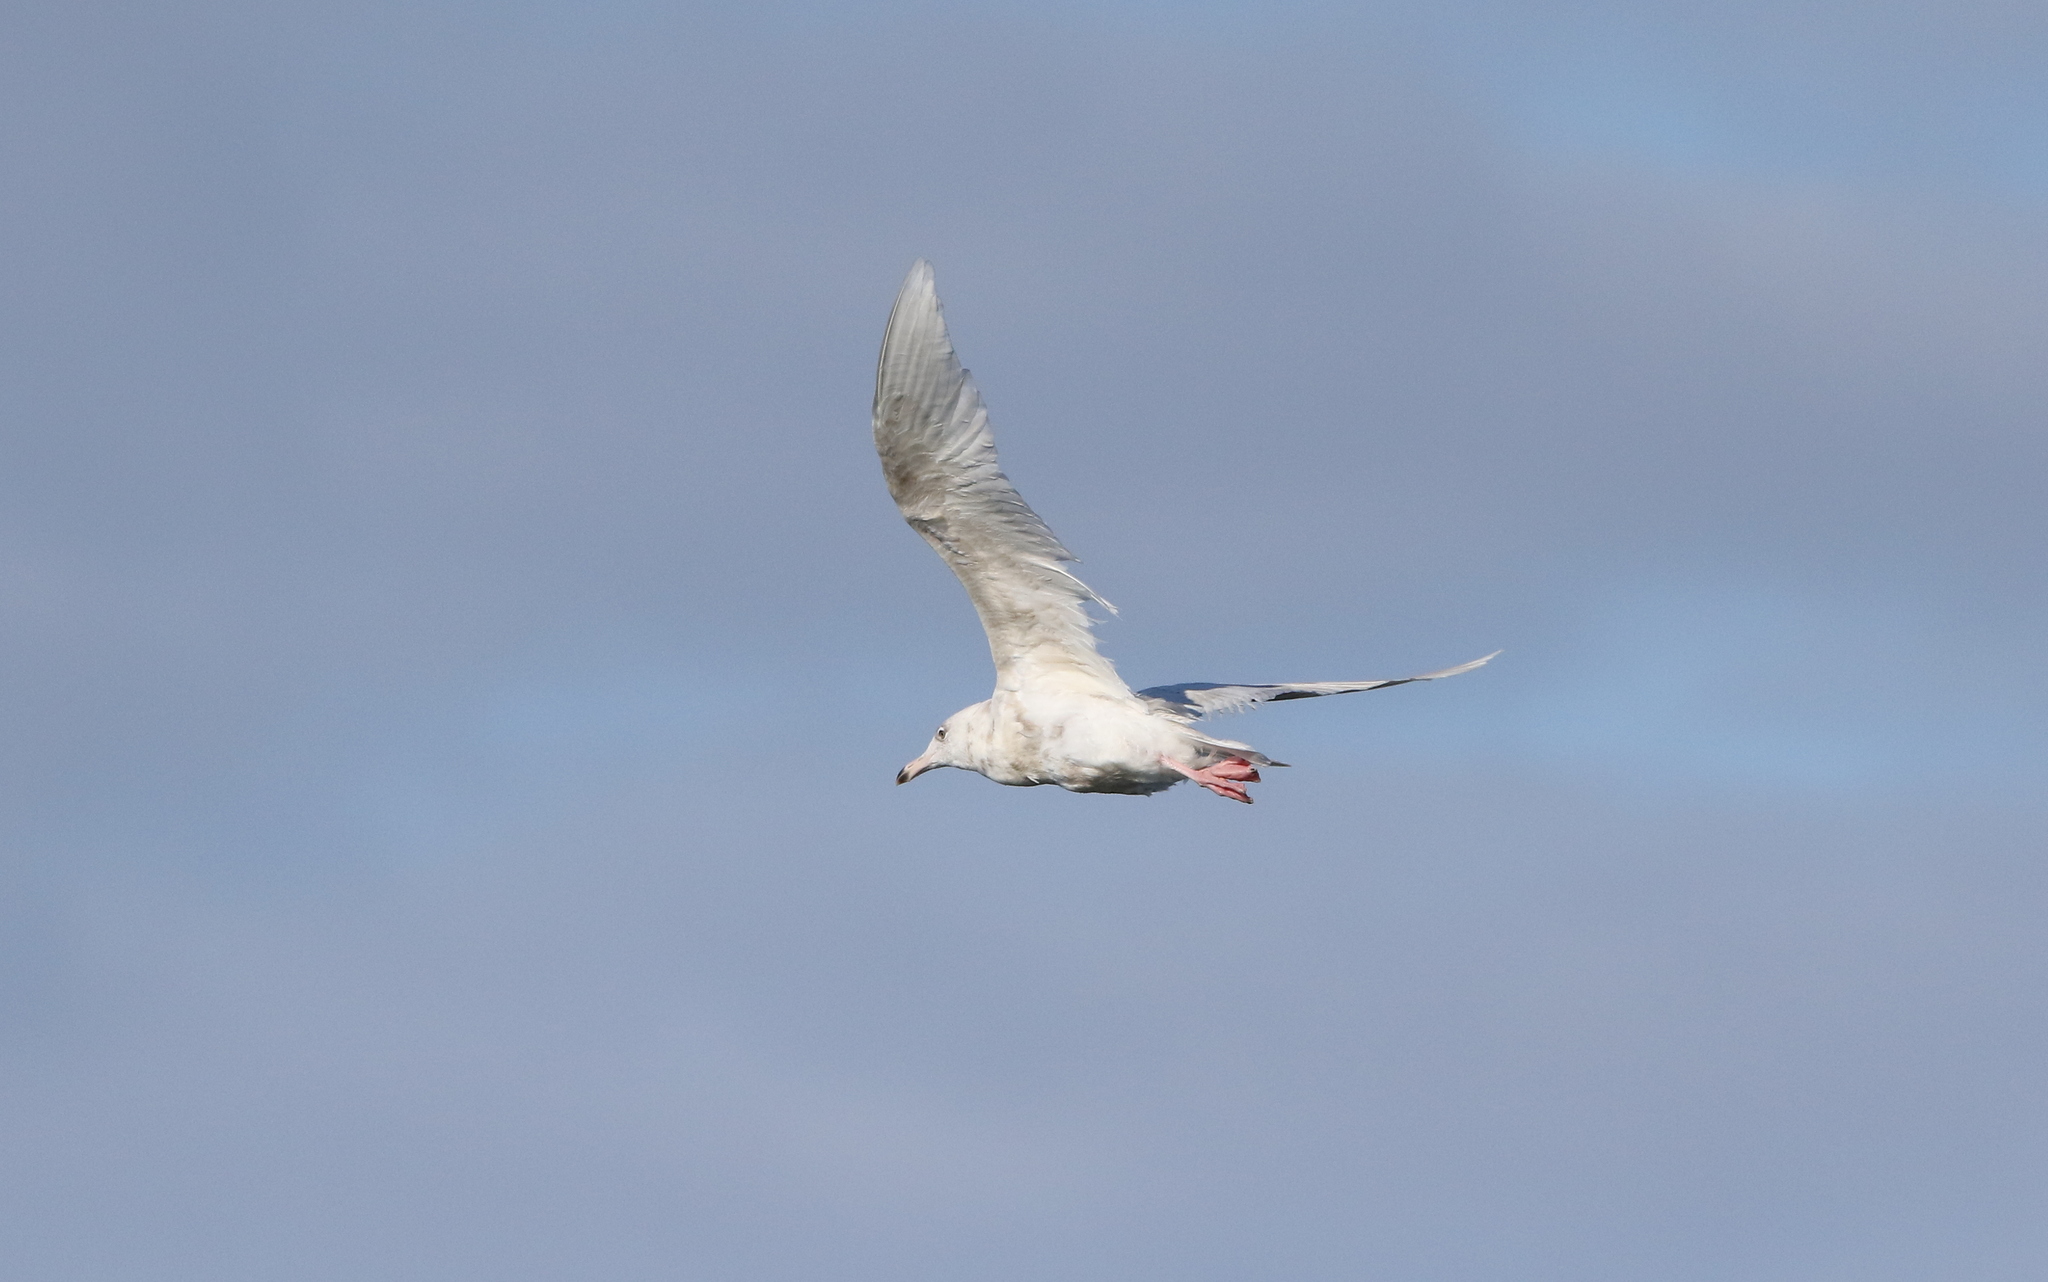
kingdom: Animalia
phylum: Chordata
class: Aves
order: Charadriiformes
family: Laridae
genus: Larus
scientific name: Larus hyperboreus
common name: Glaucous gull
